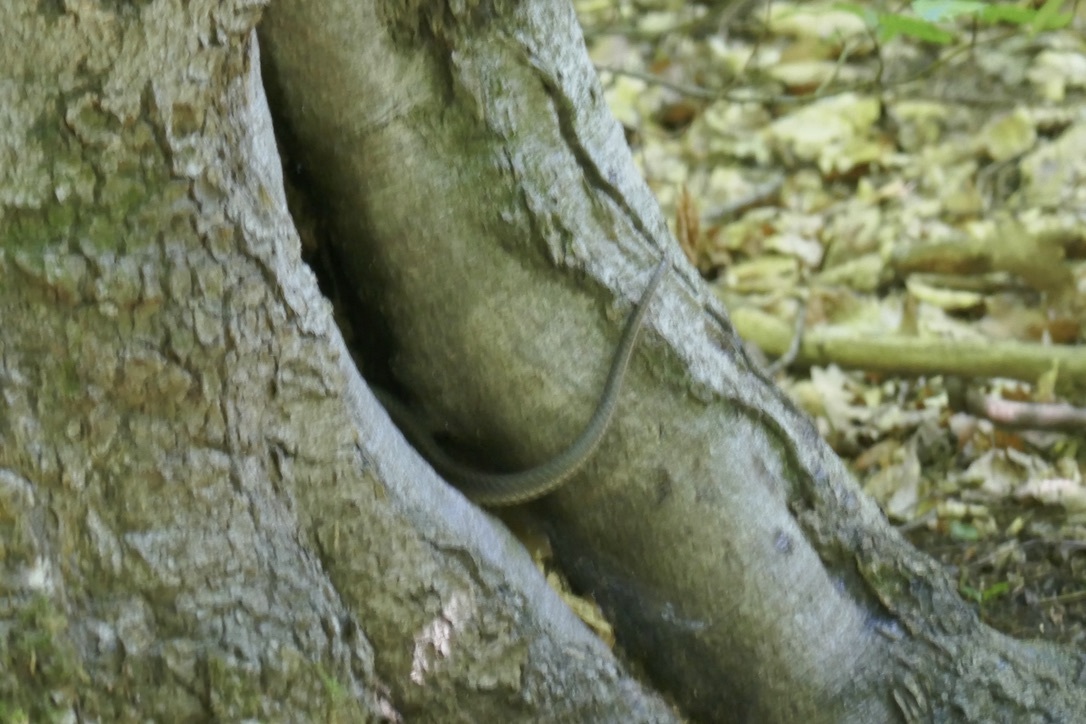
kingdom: Animalia
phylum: Chordata
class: Squamata
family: Colubridae
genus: Zamenis
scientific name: Zamenis longissimus
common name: Aesculapean snake
